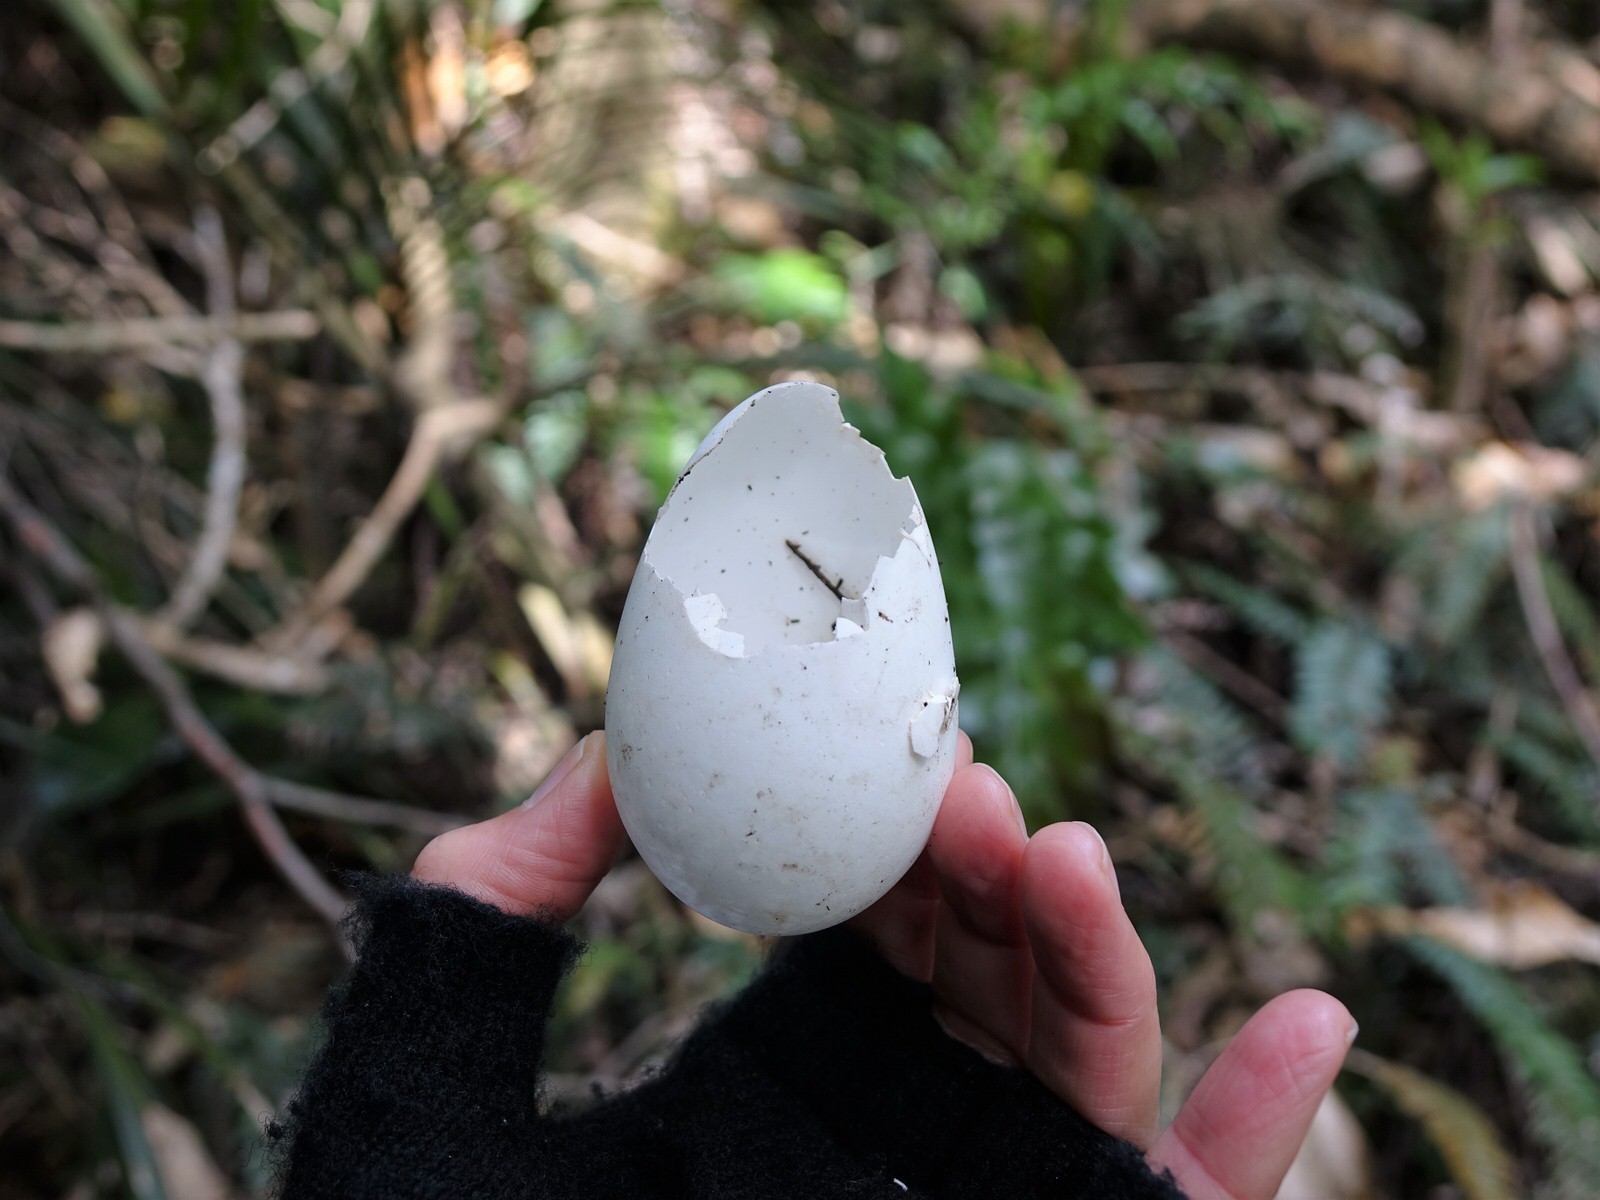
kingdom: Animalia
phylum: Chordata
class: Aves
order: Anseriformes
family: Anatidae
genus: Tadorna
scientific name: Tadorna variegata
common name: Paradise shelduck
